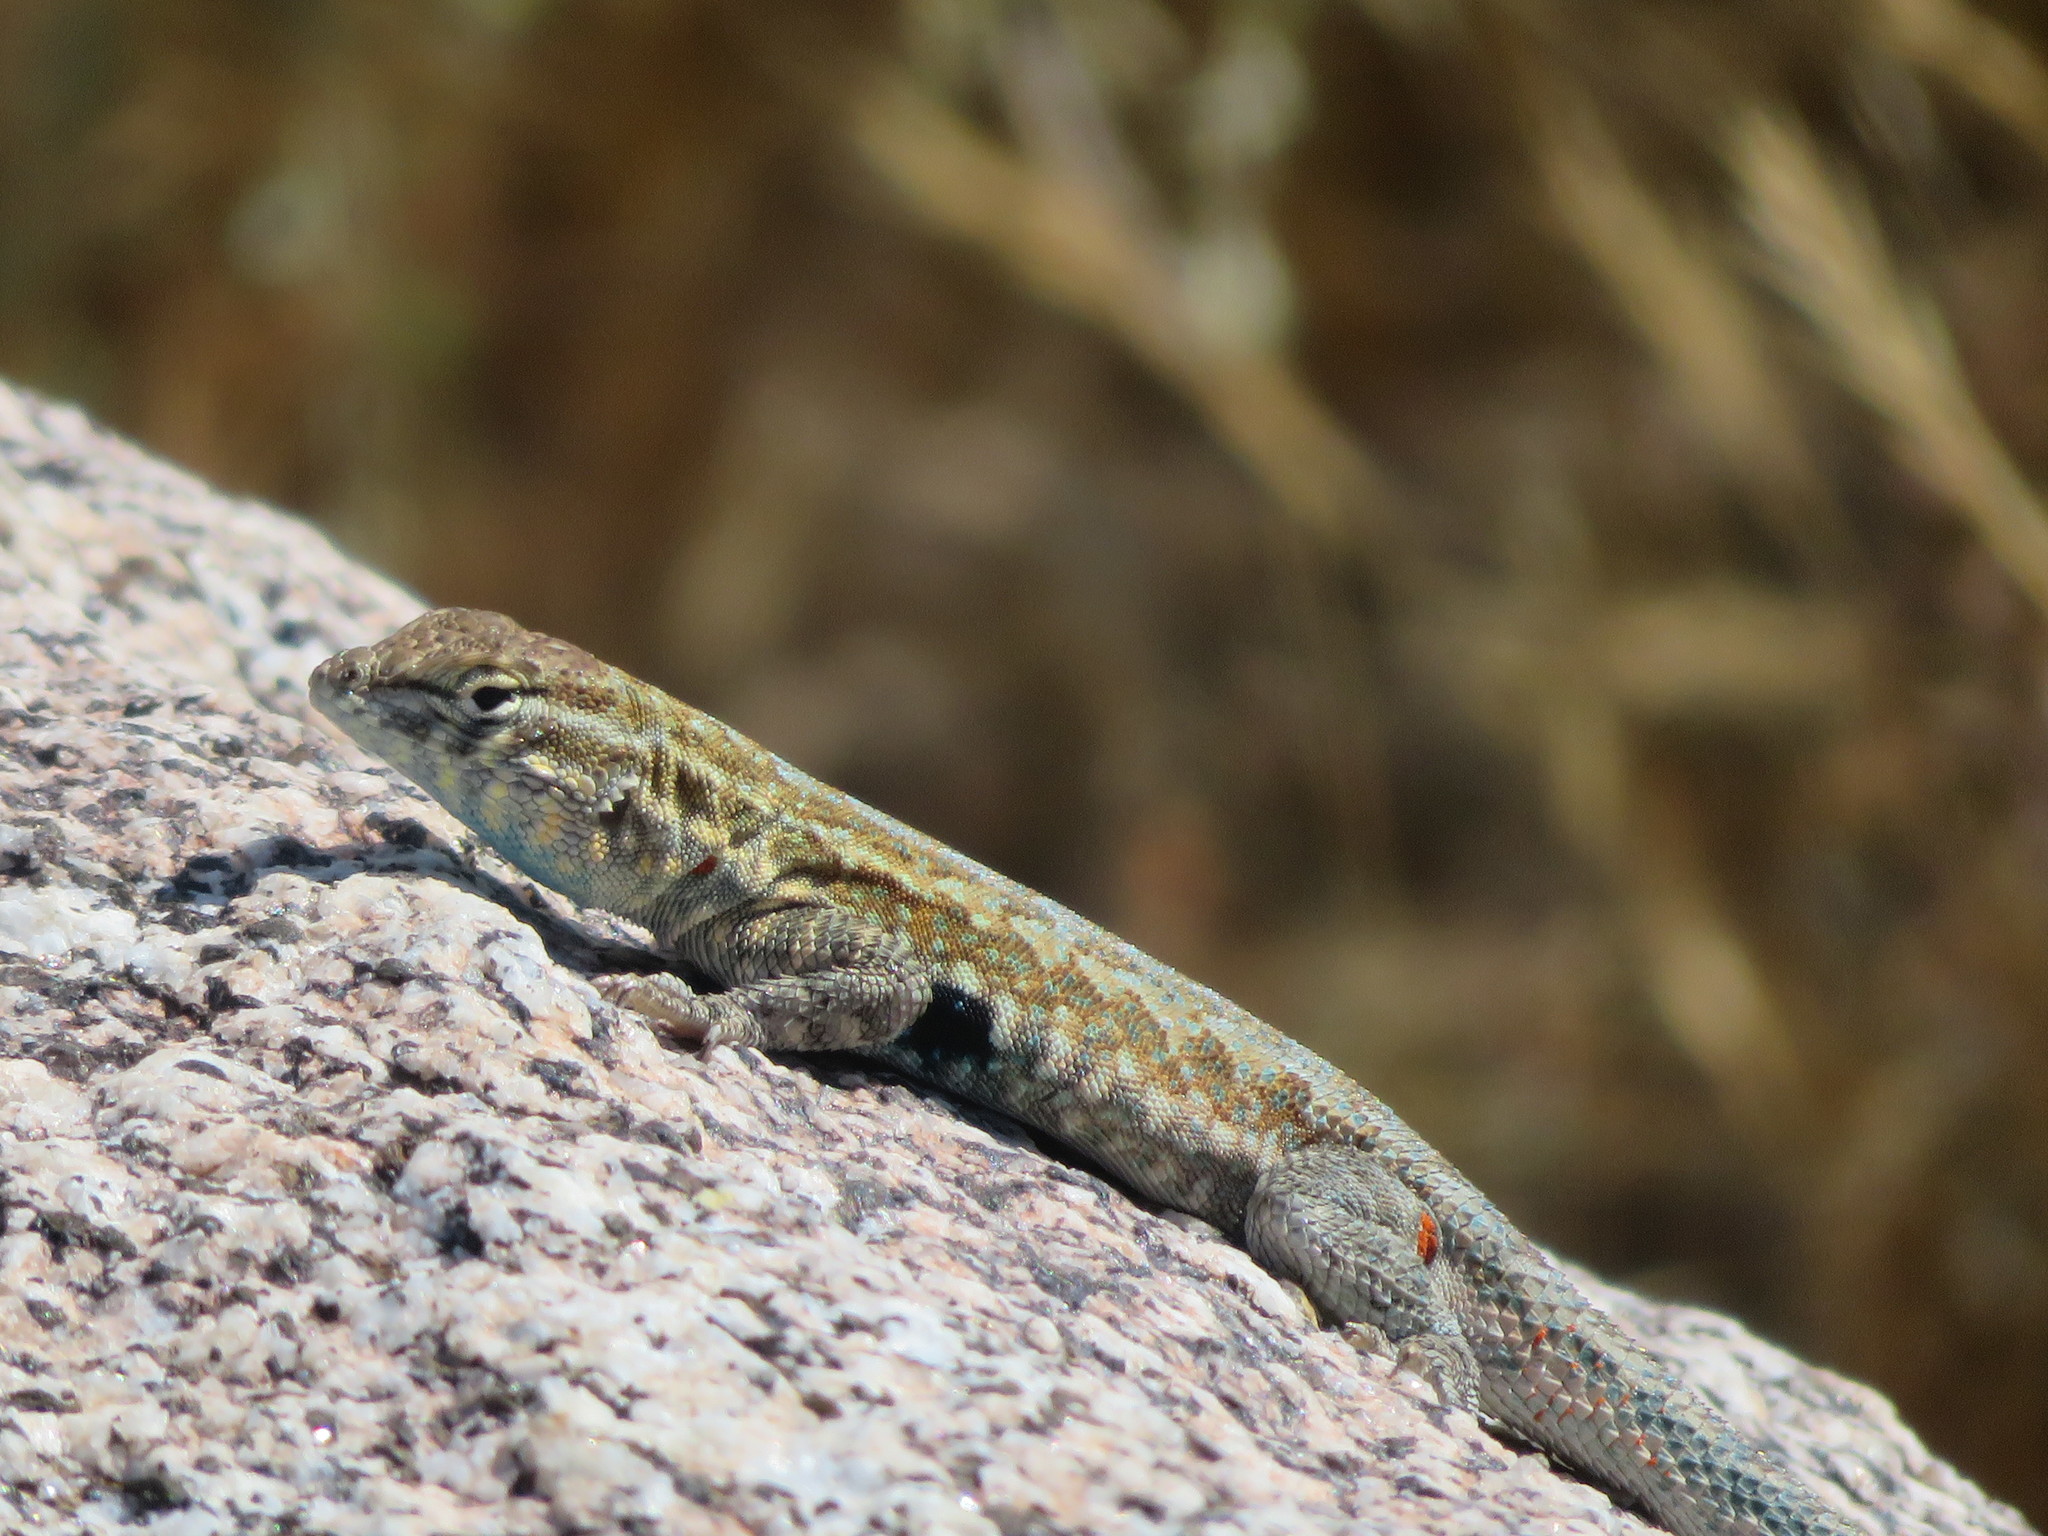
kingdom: Animalia
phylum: Chordata
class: Squamata
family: Phrynosomatidae
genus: Uta
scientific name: Uta stansburiana
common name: Side-blotched lizard
